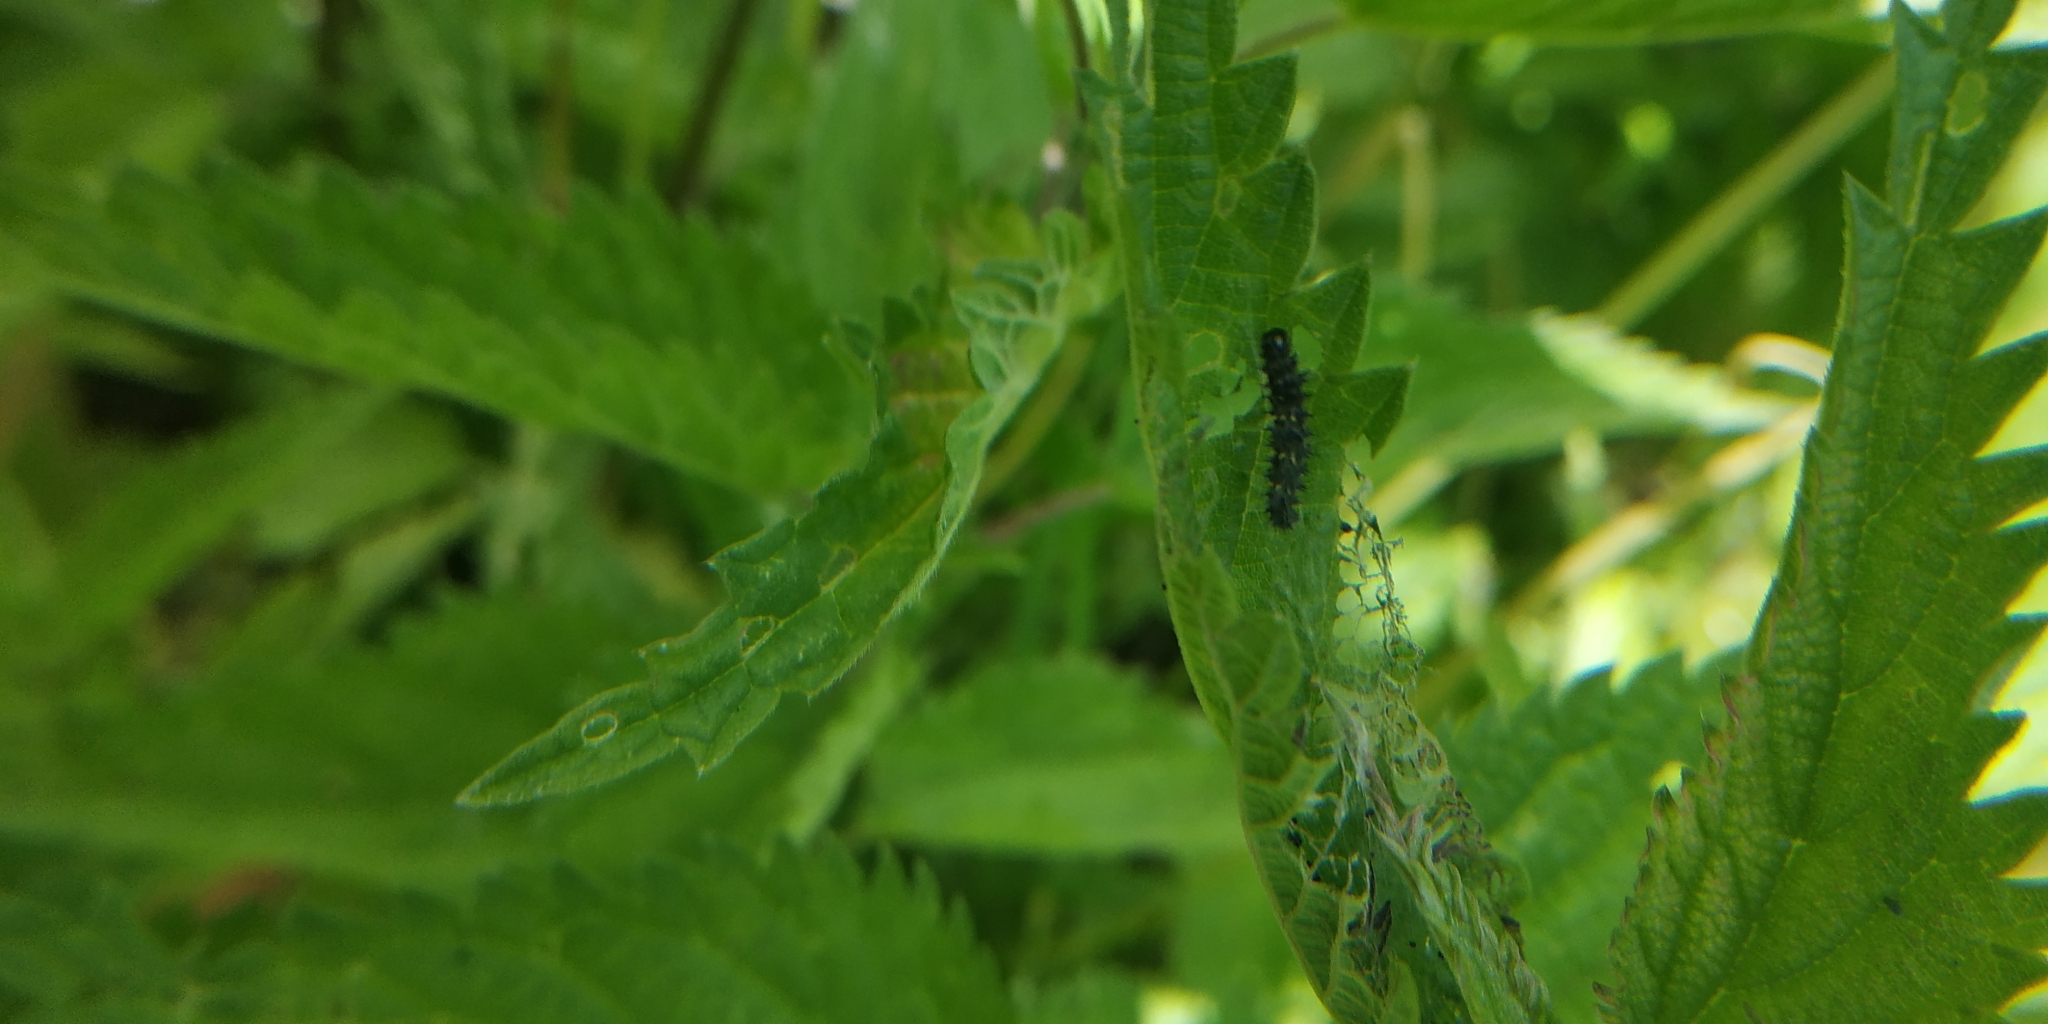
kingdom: Animalia
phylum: Arthropoda
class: Insecta
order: Lepidoptera
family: Nymphalidae
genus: Vanessa
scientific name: Vanessa cardui
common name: Painted lady
